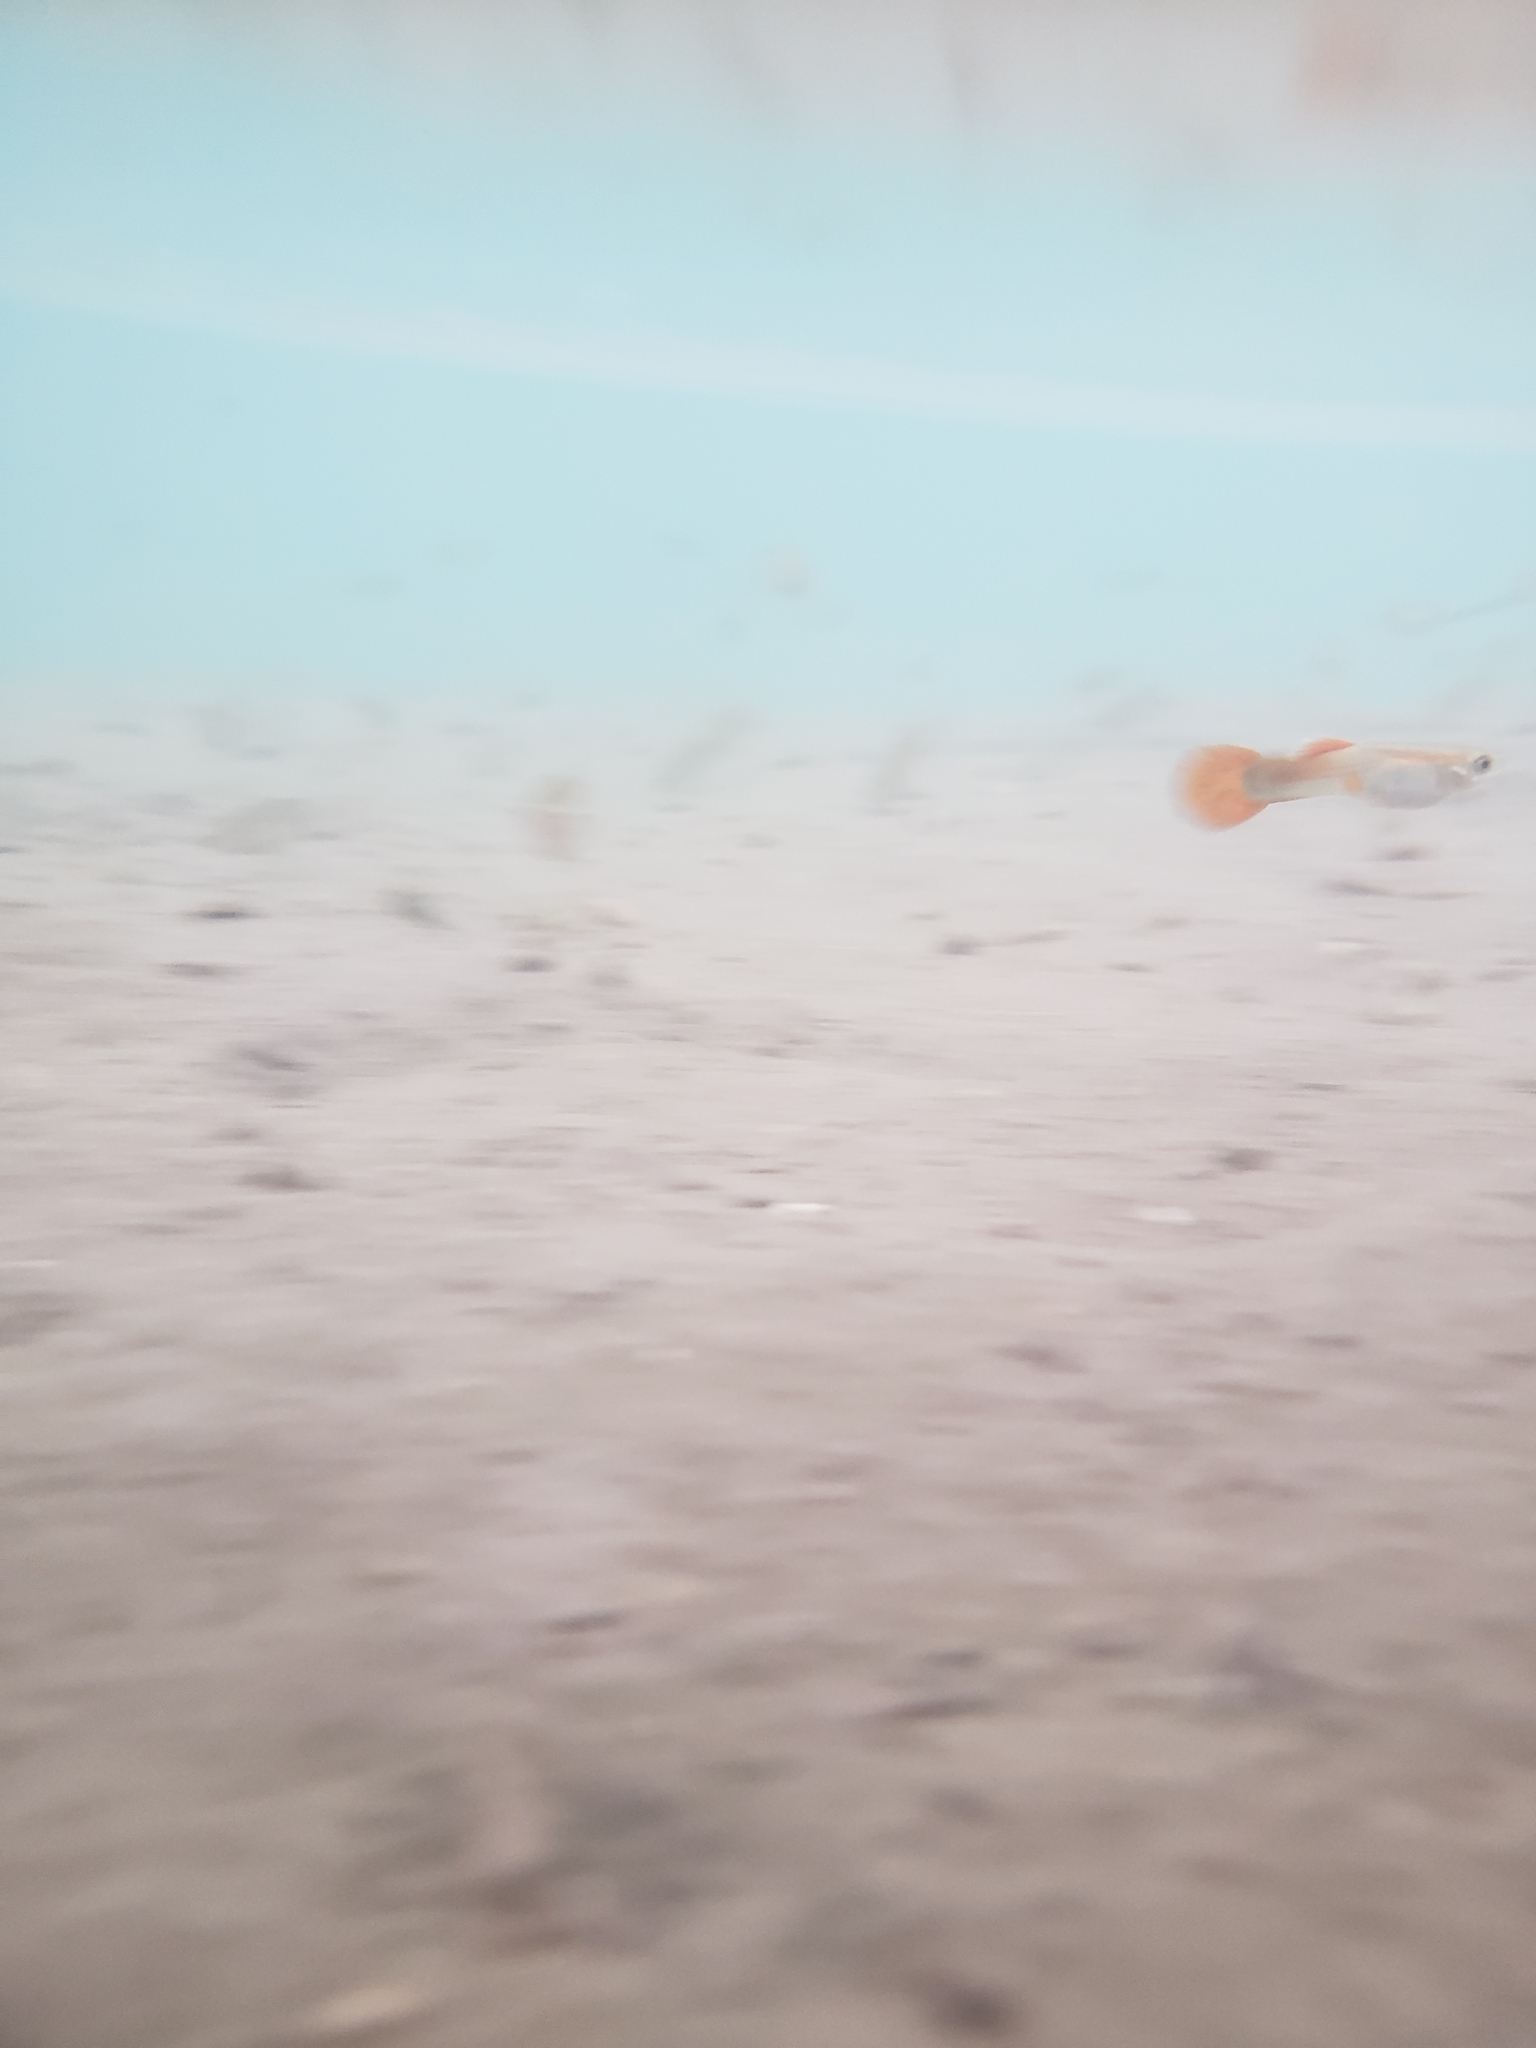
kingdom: Animalia
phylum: Chordata
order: Cyprinodontiformes
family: Poeciliidae
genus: Poecilia
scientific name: Poecilia reticulata
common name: Guppy
